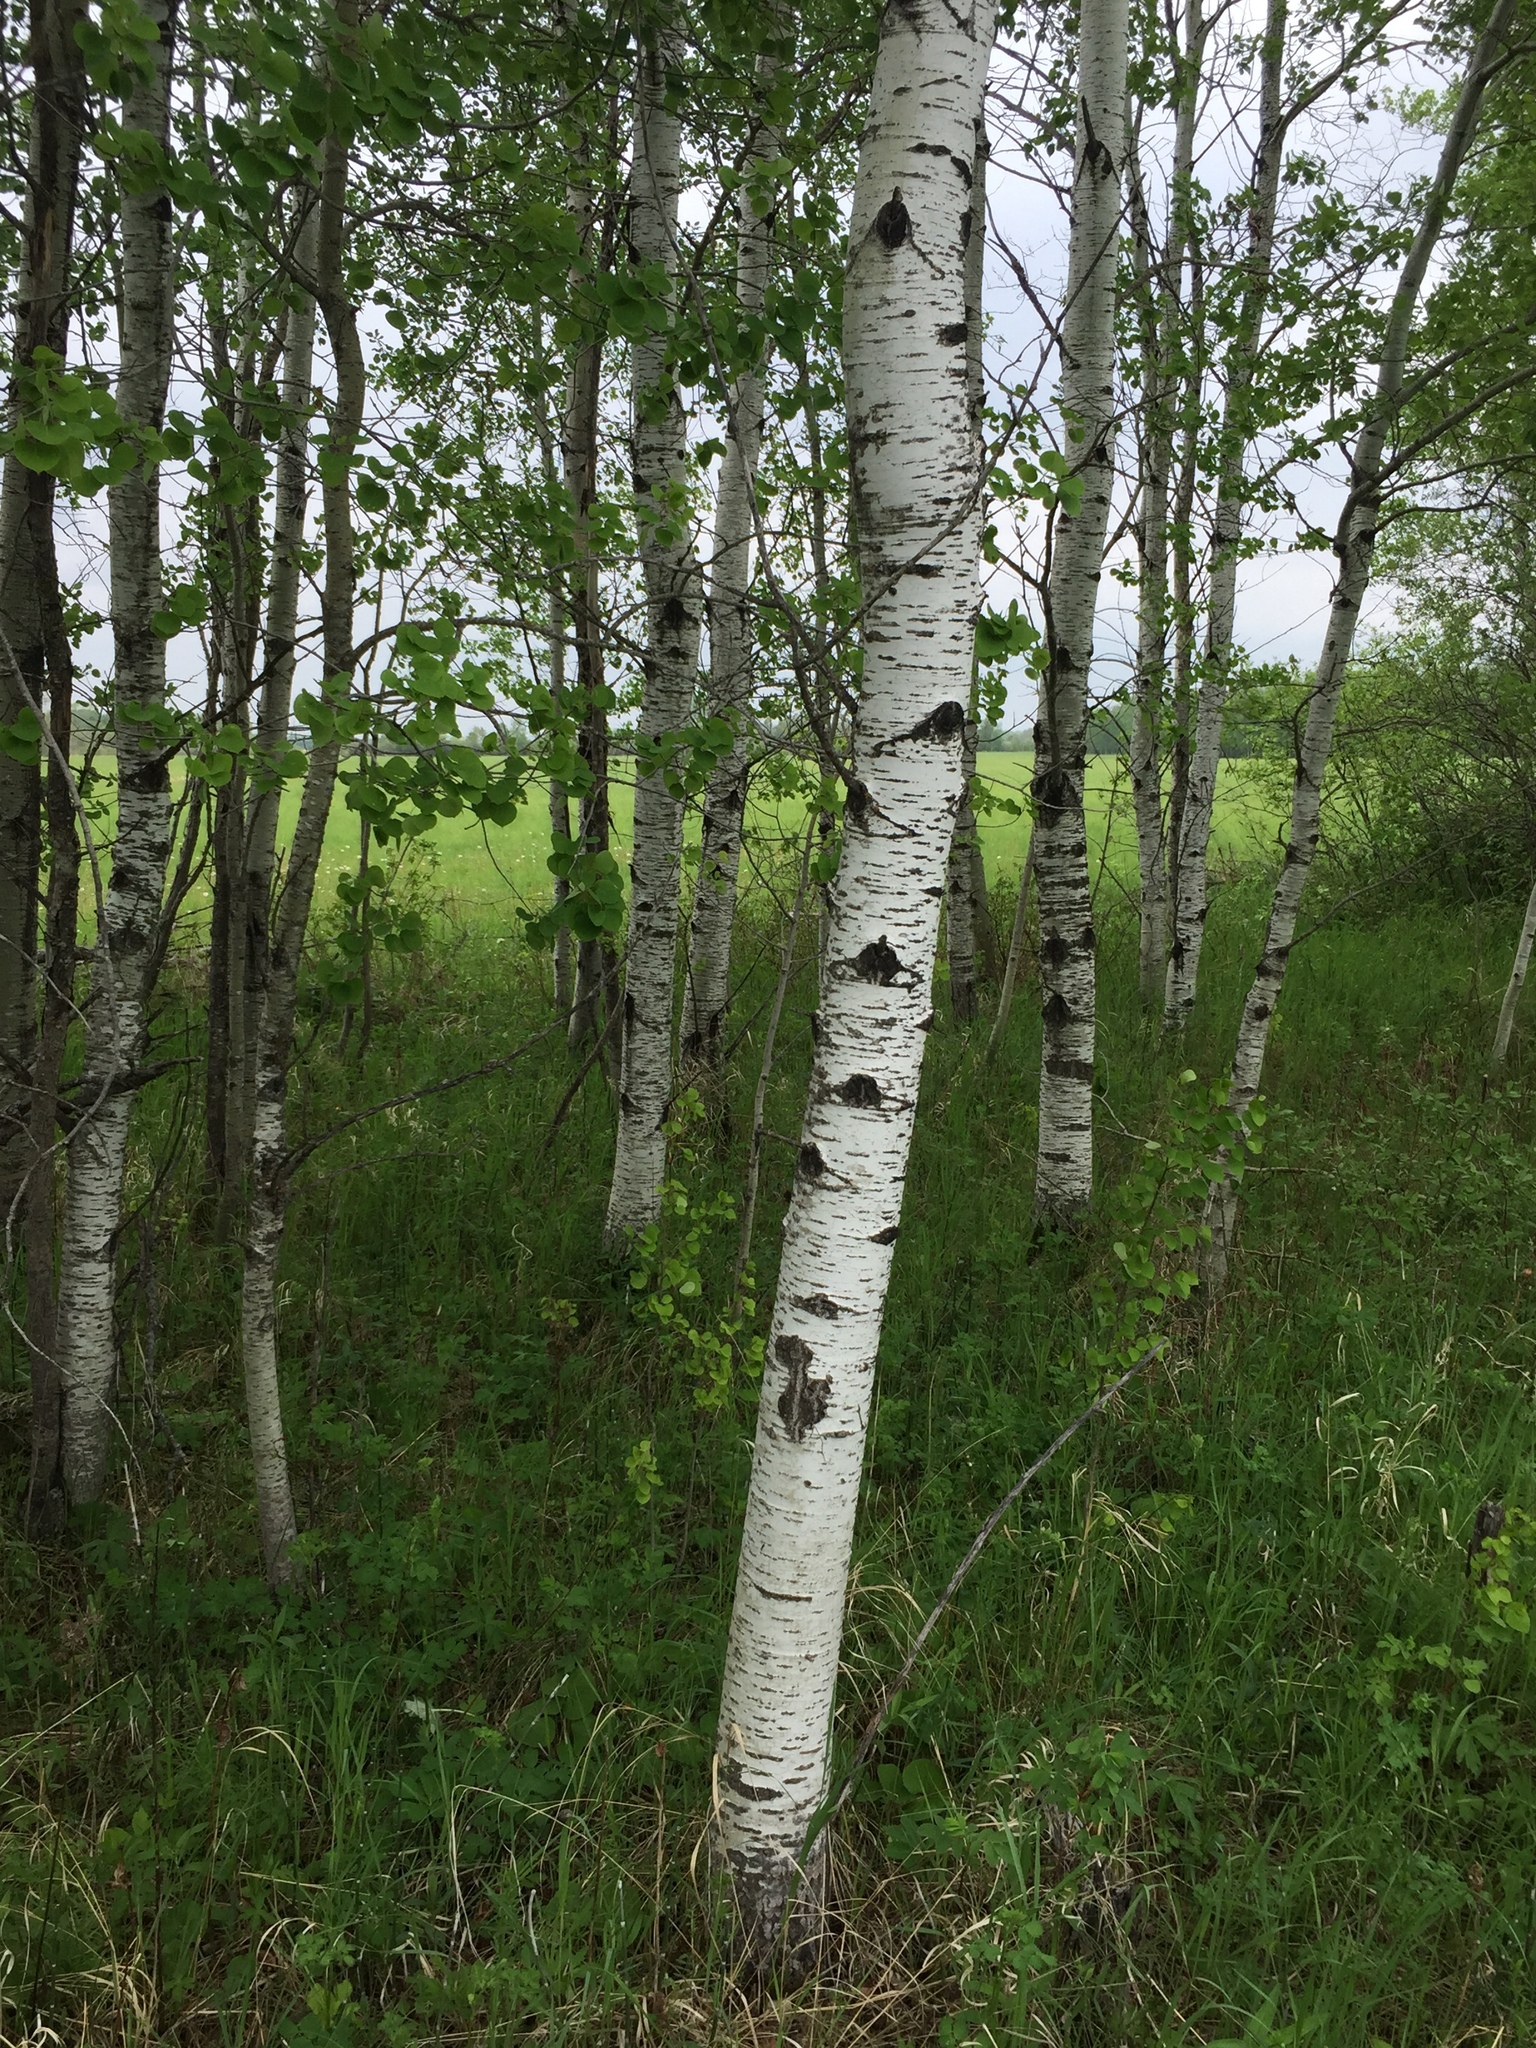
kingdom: Plantae
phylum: Tracheophyta
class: Magnoliopsida
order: Malpighiales
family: Salicaceae
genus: Populus
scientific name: Populus tremuloides
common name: Quaking aspen
